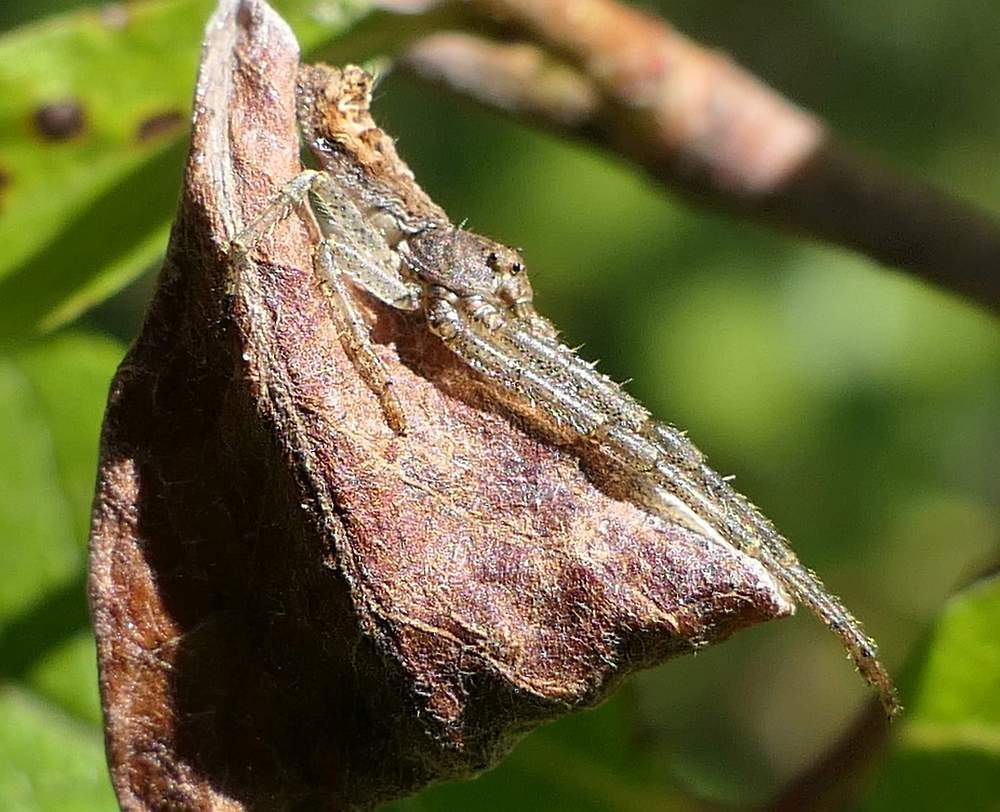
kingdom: Animalia
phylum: Arthropoda
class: Arachnida
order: Araneae
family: Thomisidae
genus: Tmarus
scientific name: Tmarus angulatus
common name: Tuberculated crab spider
